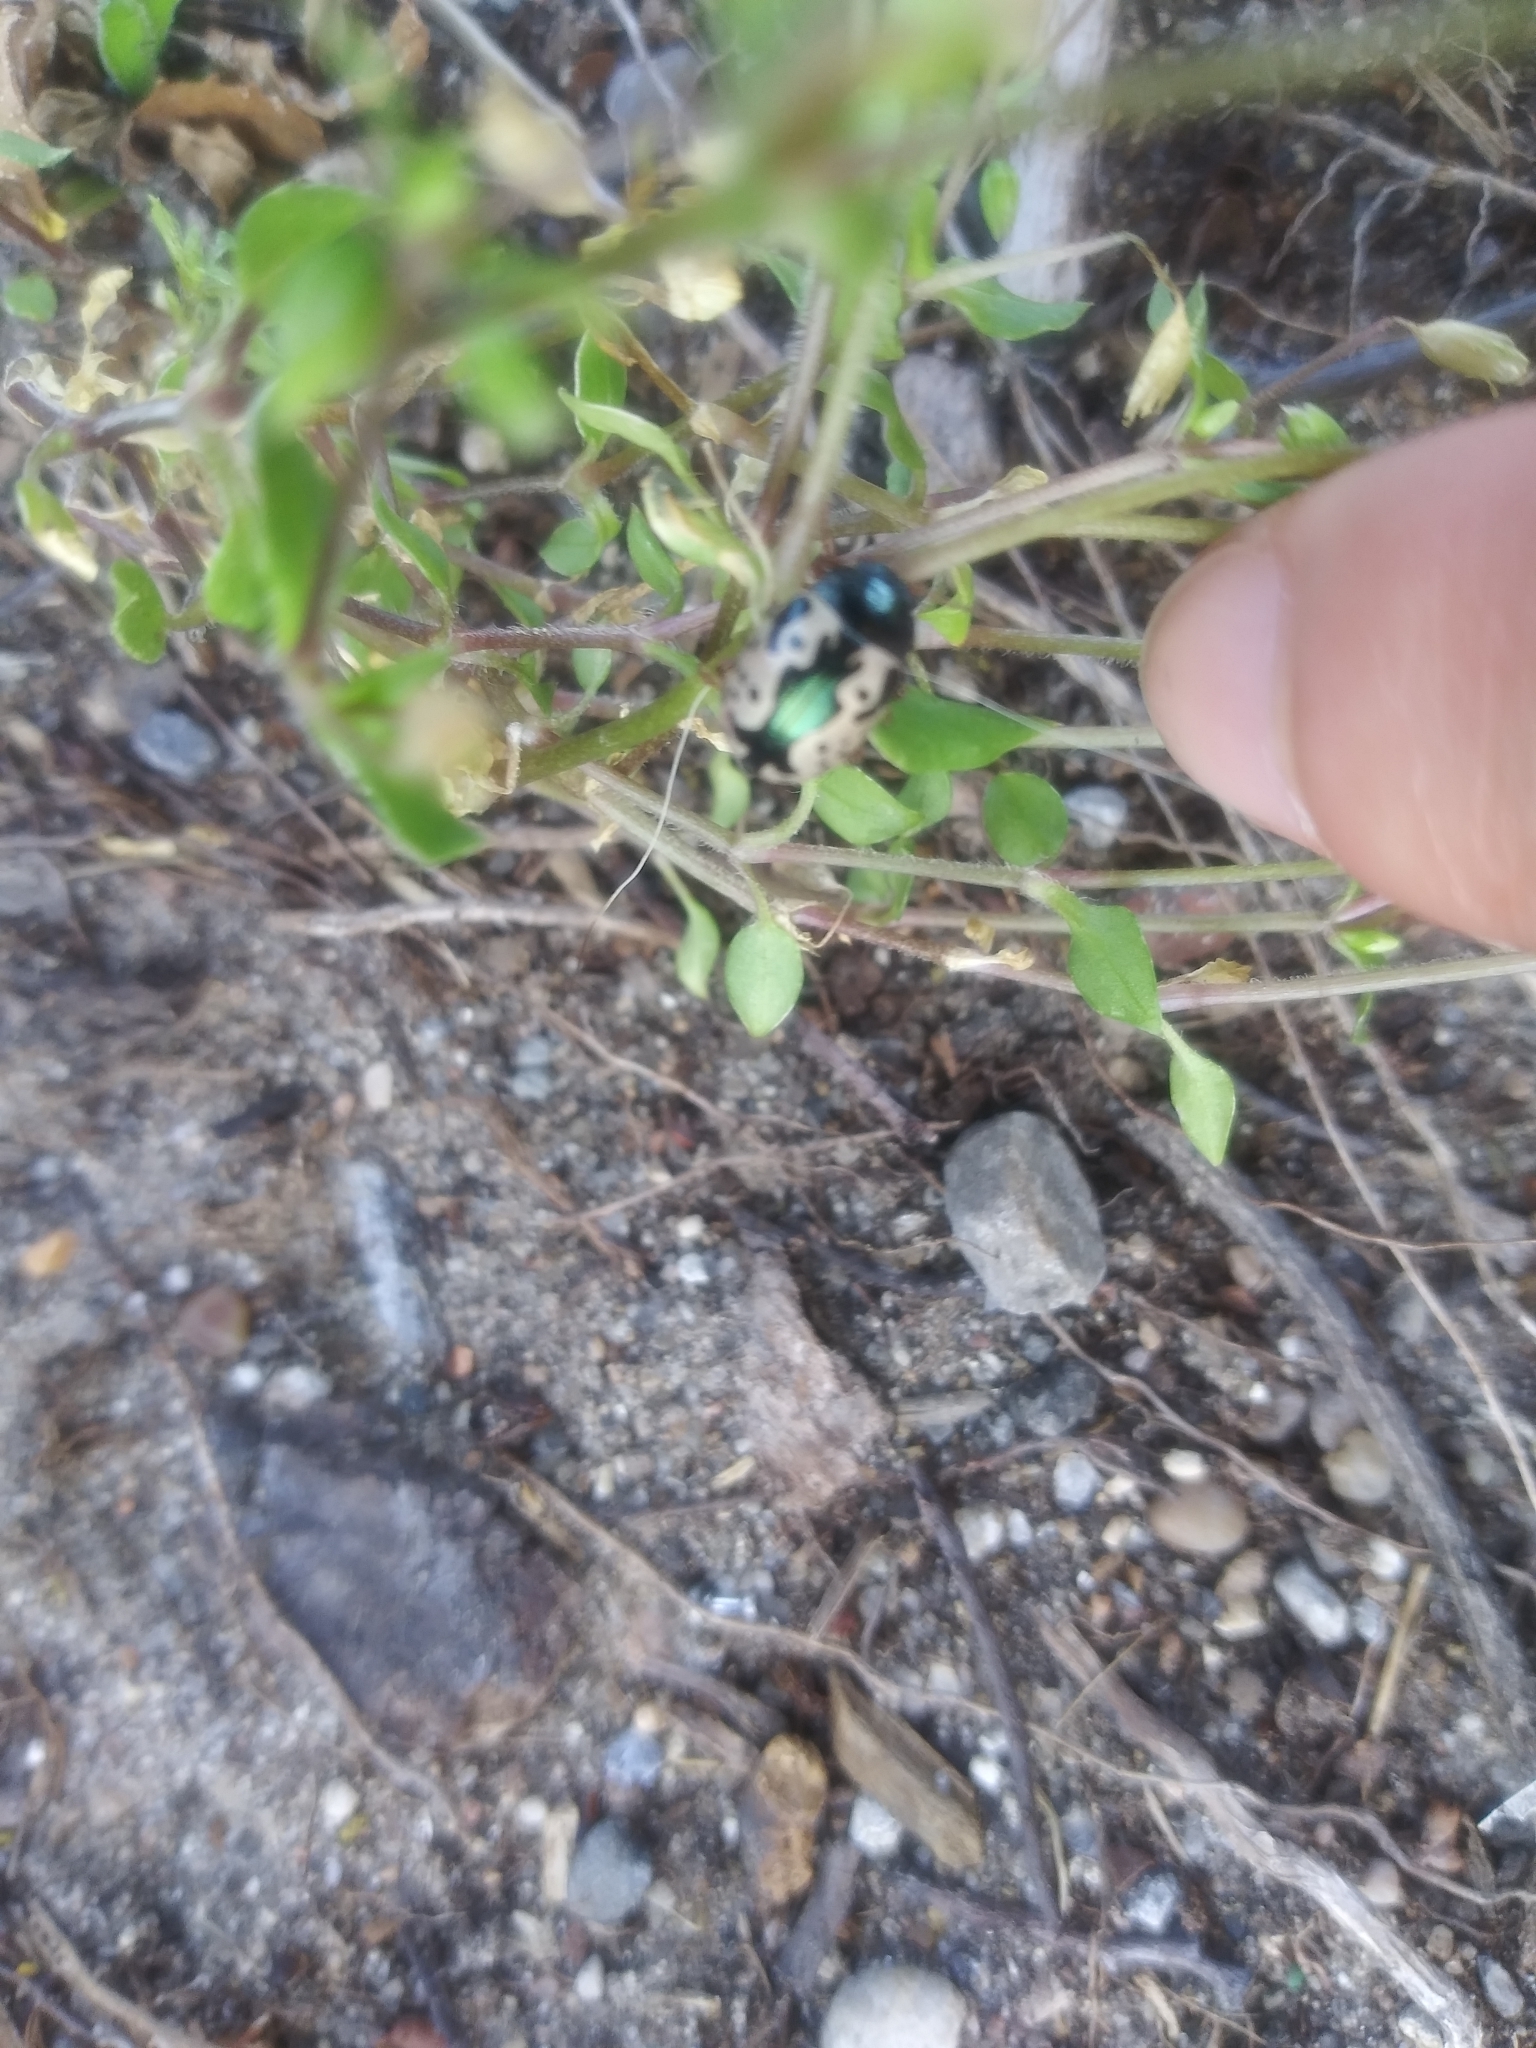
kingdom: Animalia
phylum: Arthropoda
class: Insecta
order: Coleoptera
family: Chrysomelidae
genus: Calligrapha
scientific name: Calligrapha scalaris
